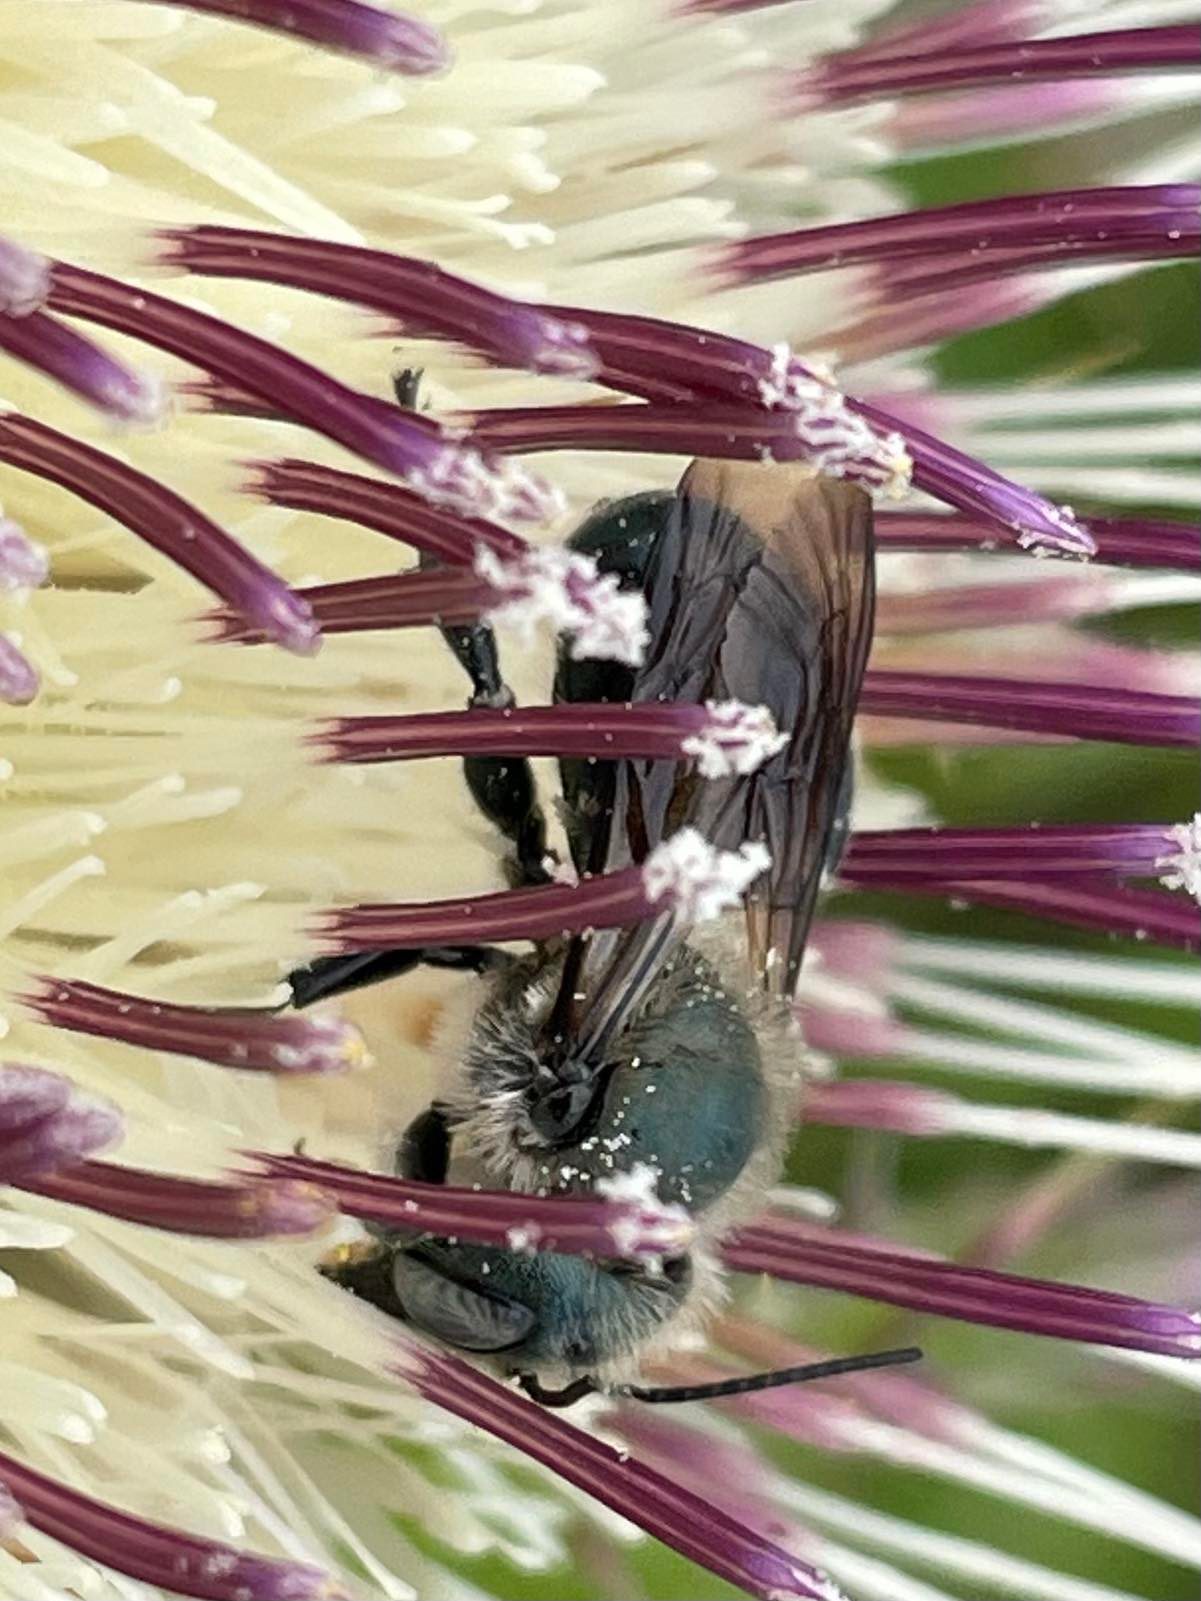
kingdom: Animalia
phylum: Arthropoda
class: Insecta
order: Hymenoptera
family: Megachilidae
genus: Osmia
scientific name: Osmia chalybea
